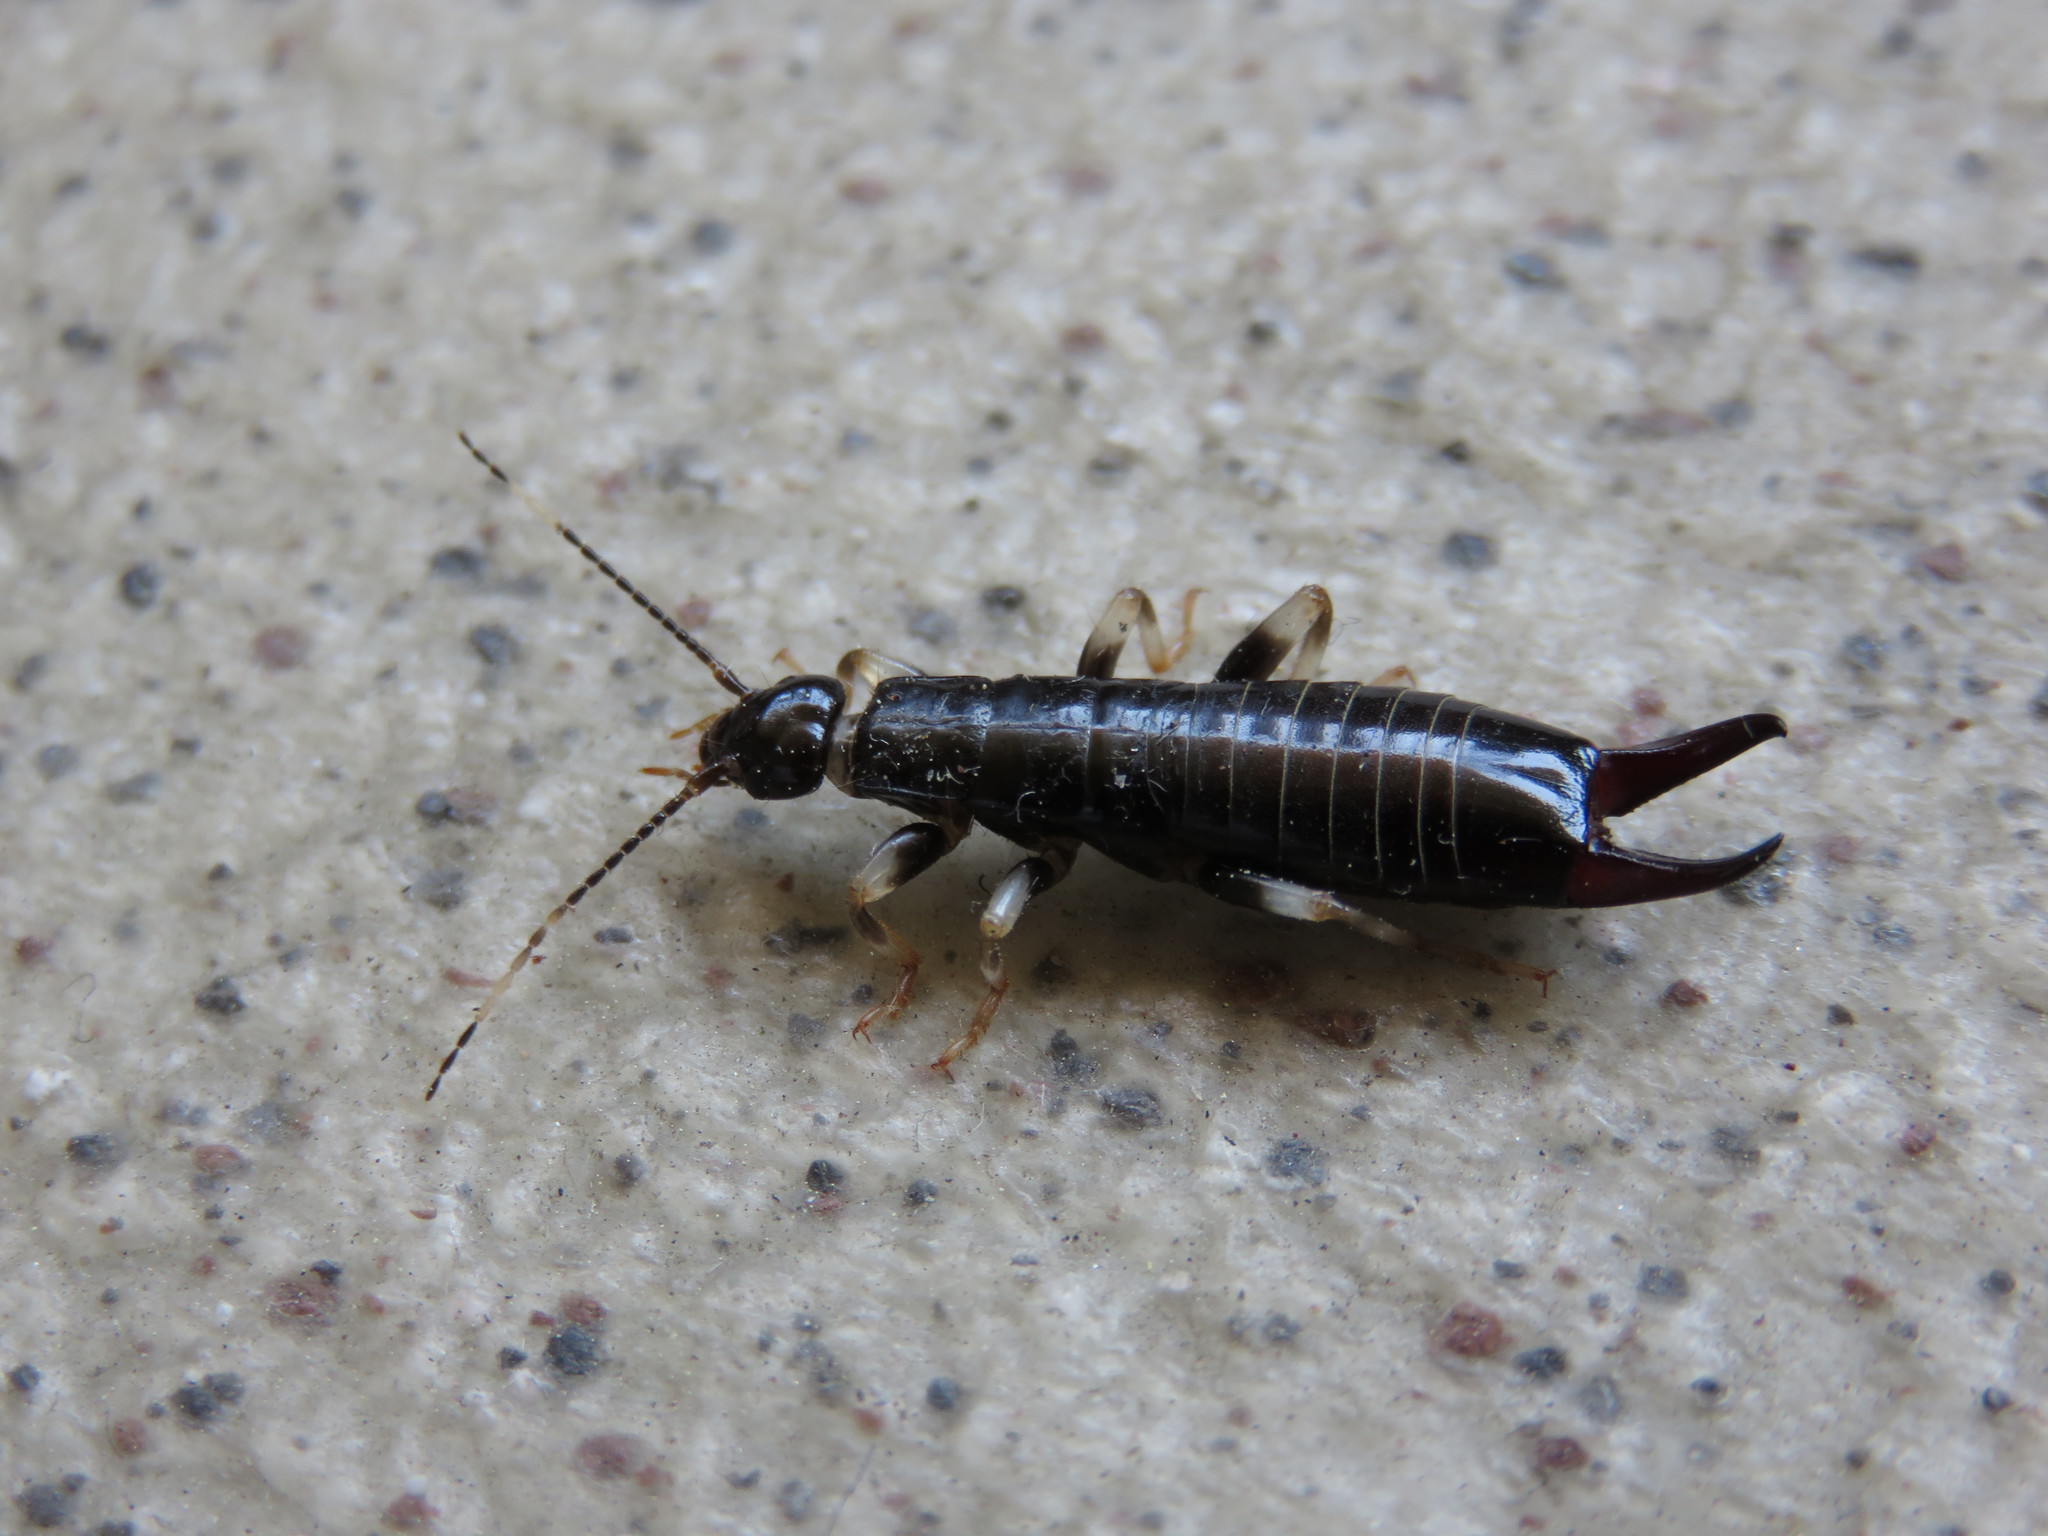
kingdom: Animalia
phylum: Arthropoda
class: Insecta
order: Dermaptera
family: Anisolabididae
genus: Anisolabella
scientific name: Anisolabella marginalis
